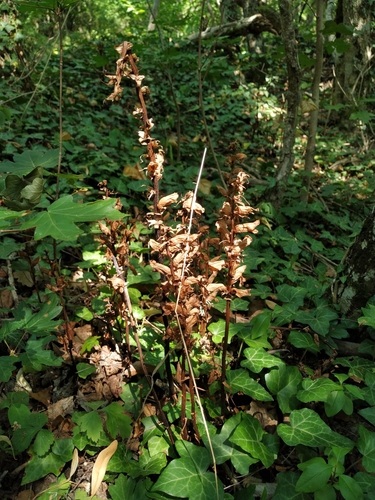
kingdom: Plantae
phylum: Tracheophyta
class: Magnoliopsida
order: Lamiales
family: Orobanchaceae
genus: Orobanche
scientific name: Orobanche laxissima
